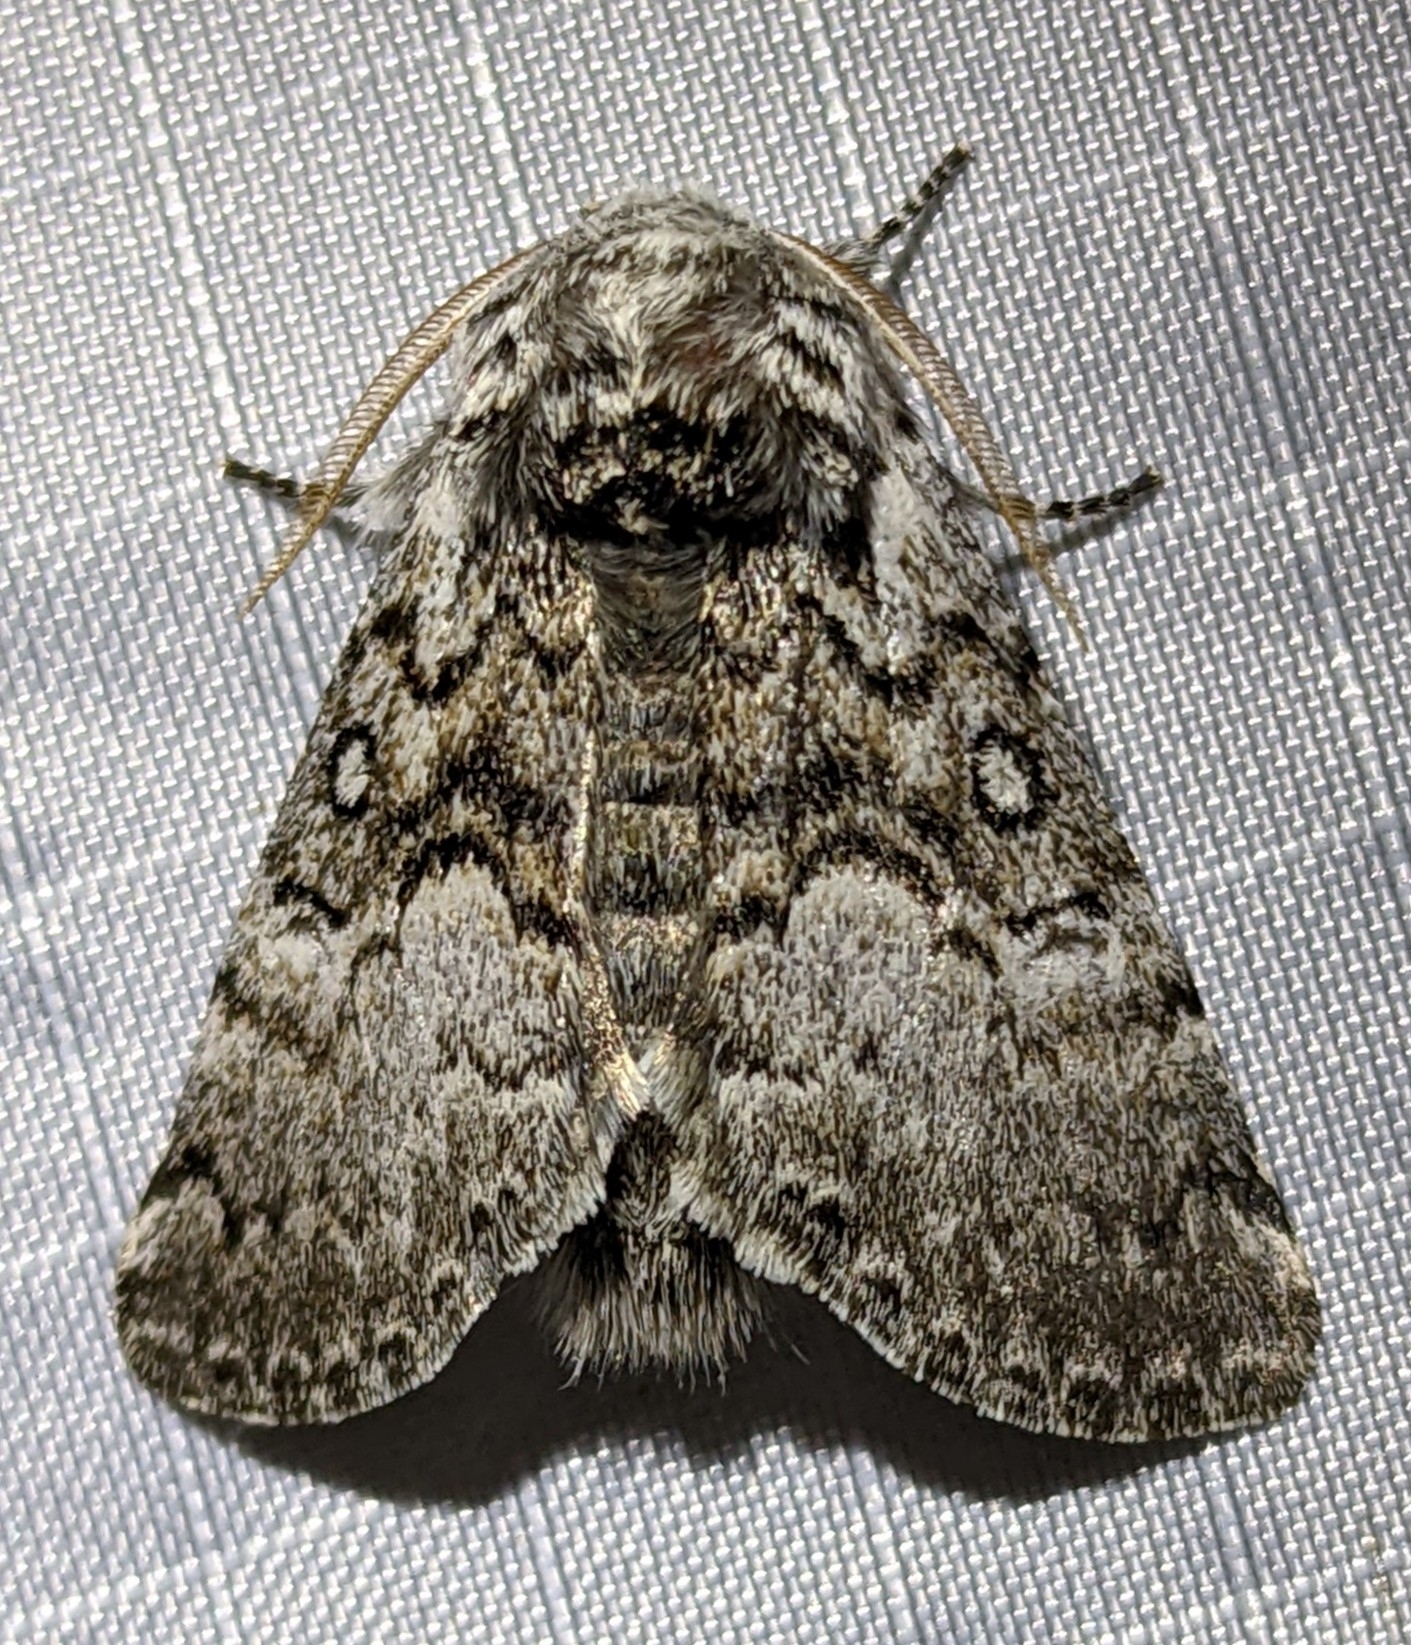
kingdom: Animalia
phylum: Arthropoda
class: Insecta
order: Lepidoptera
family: Noctuidae
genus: Colocasia
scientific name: Colocasia flavicornis
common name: Saddled yellowhorn
